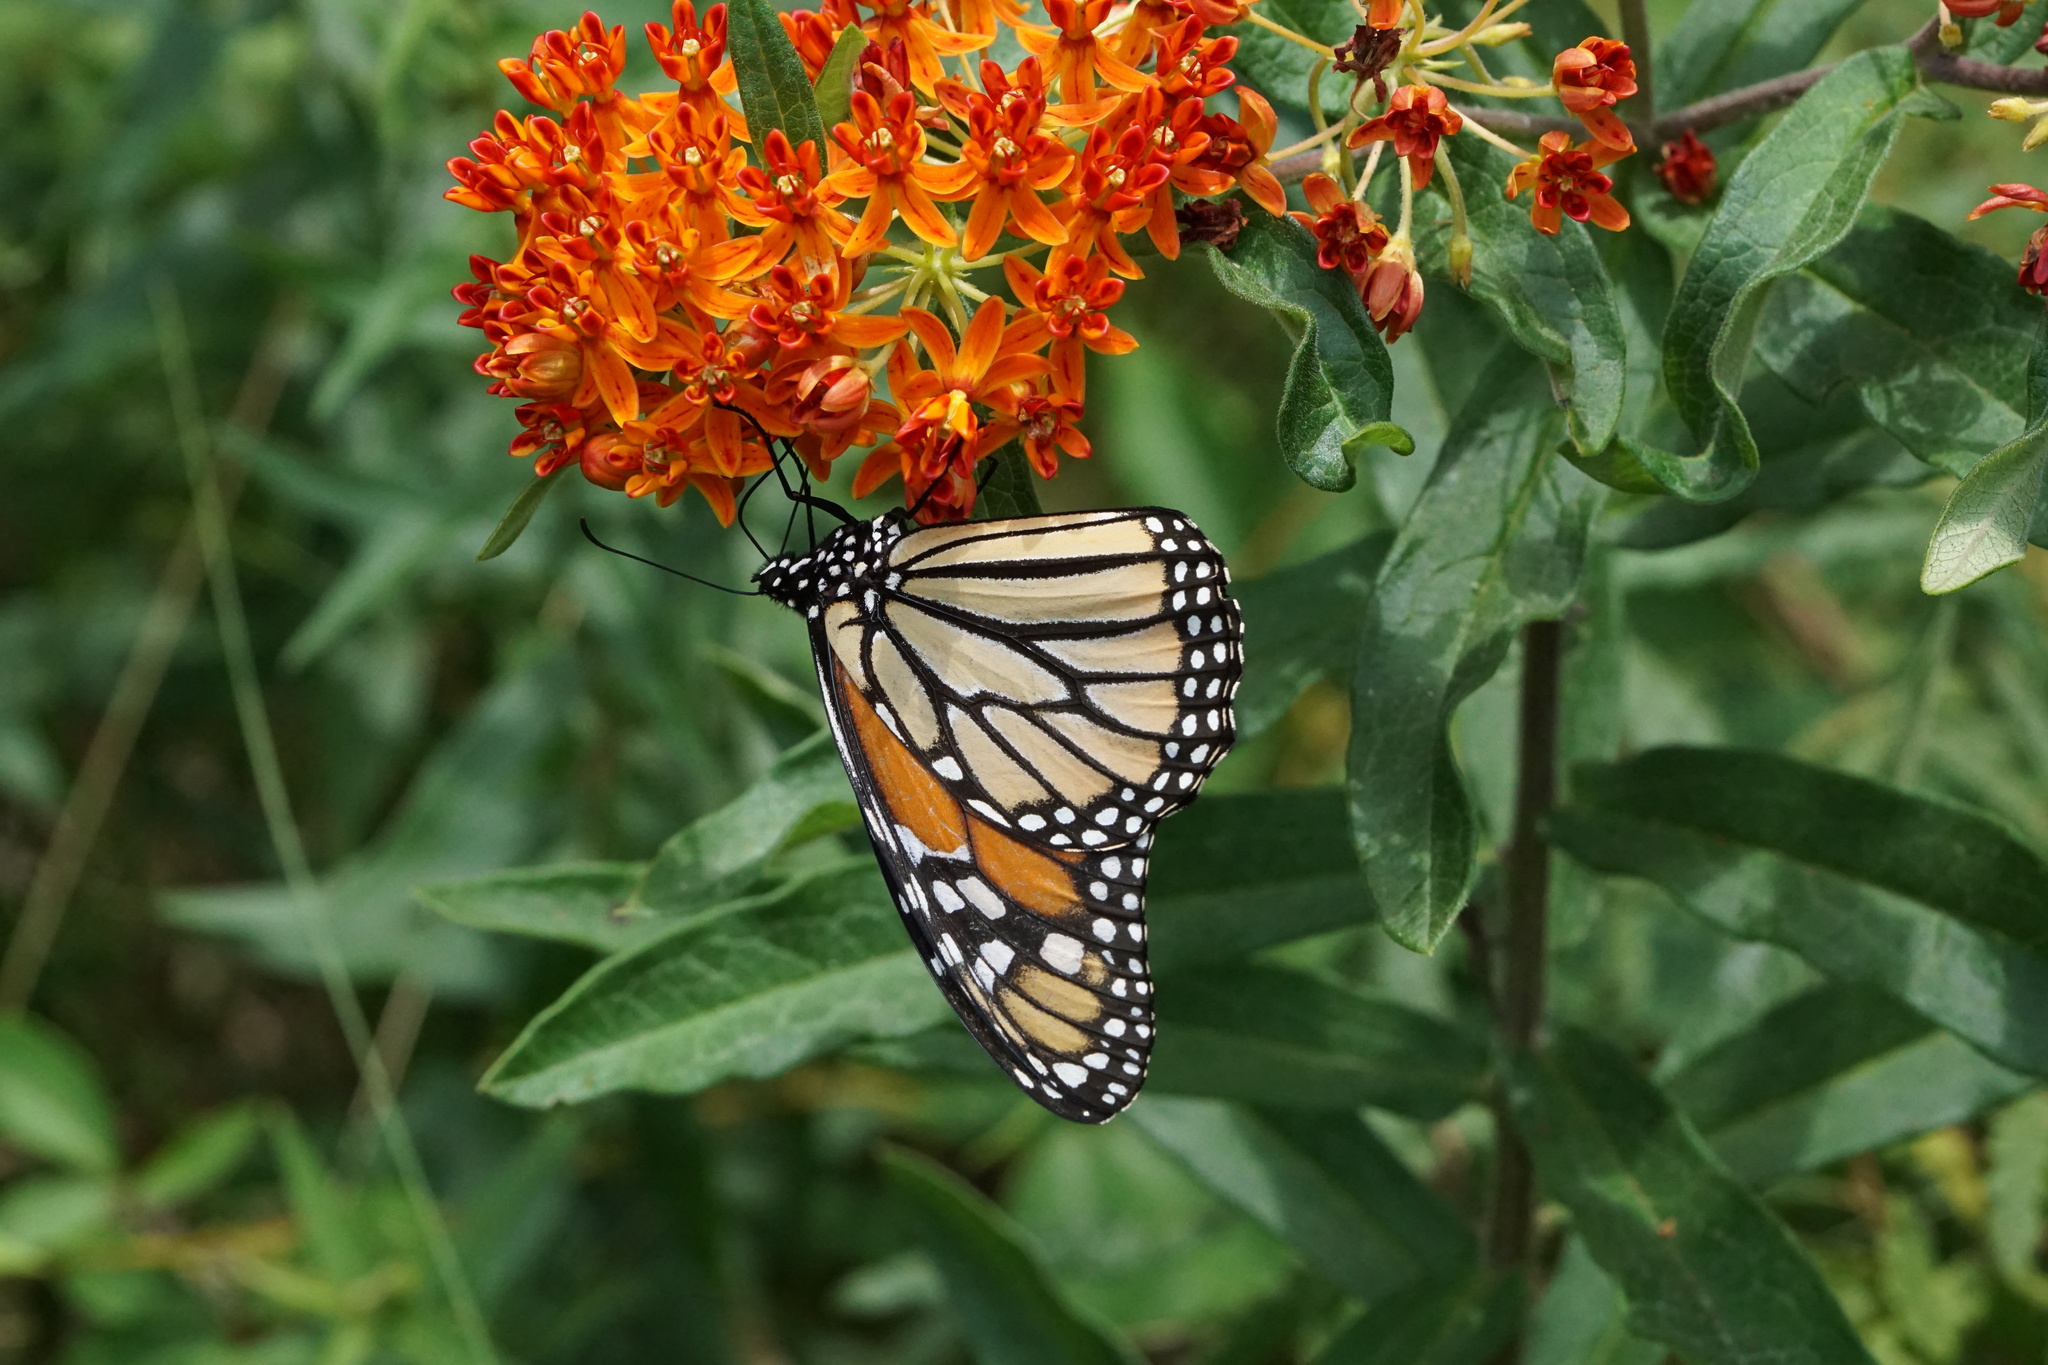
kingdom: Animalia
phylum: Arthropoda
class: Insecta
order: Lepidoptera
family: Nymphalidae
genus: Danaus
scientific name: Danaus plexippus
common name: Monarch
